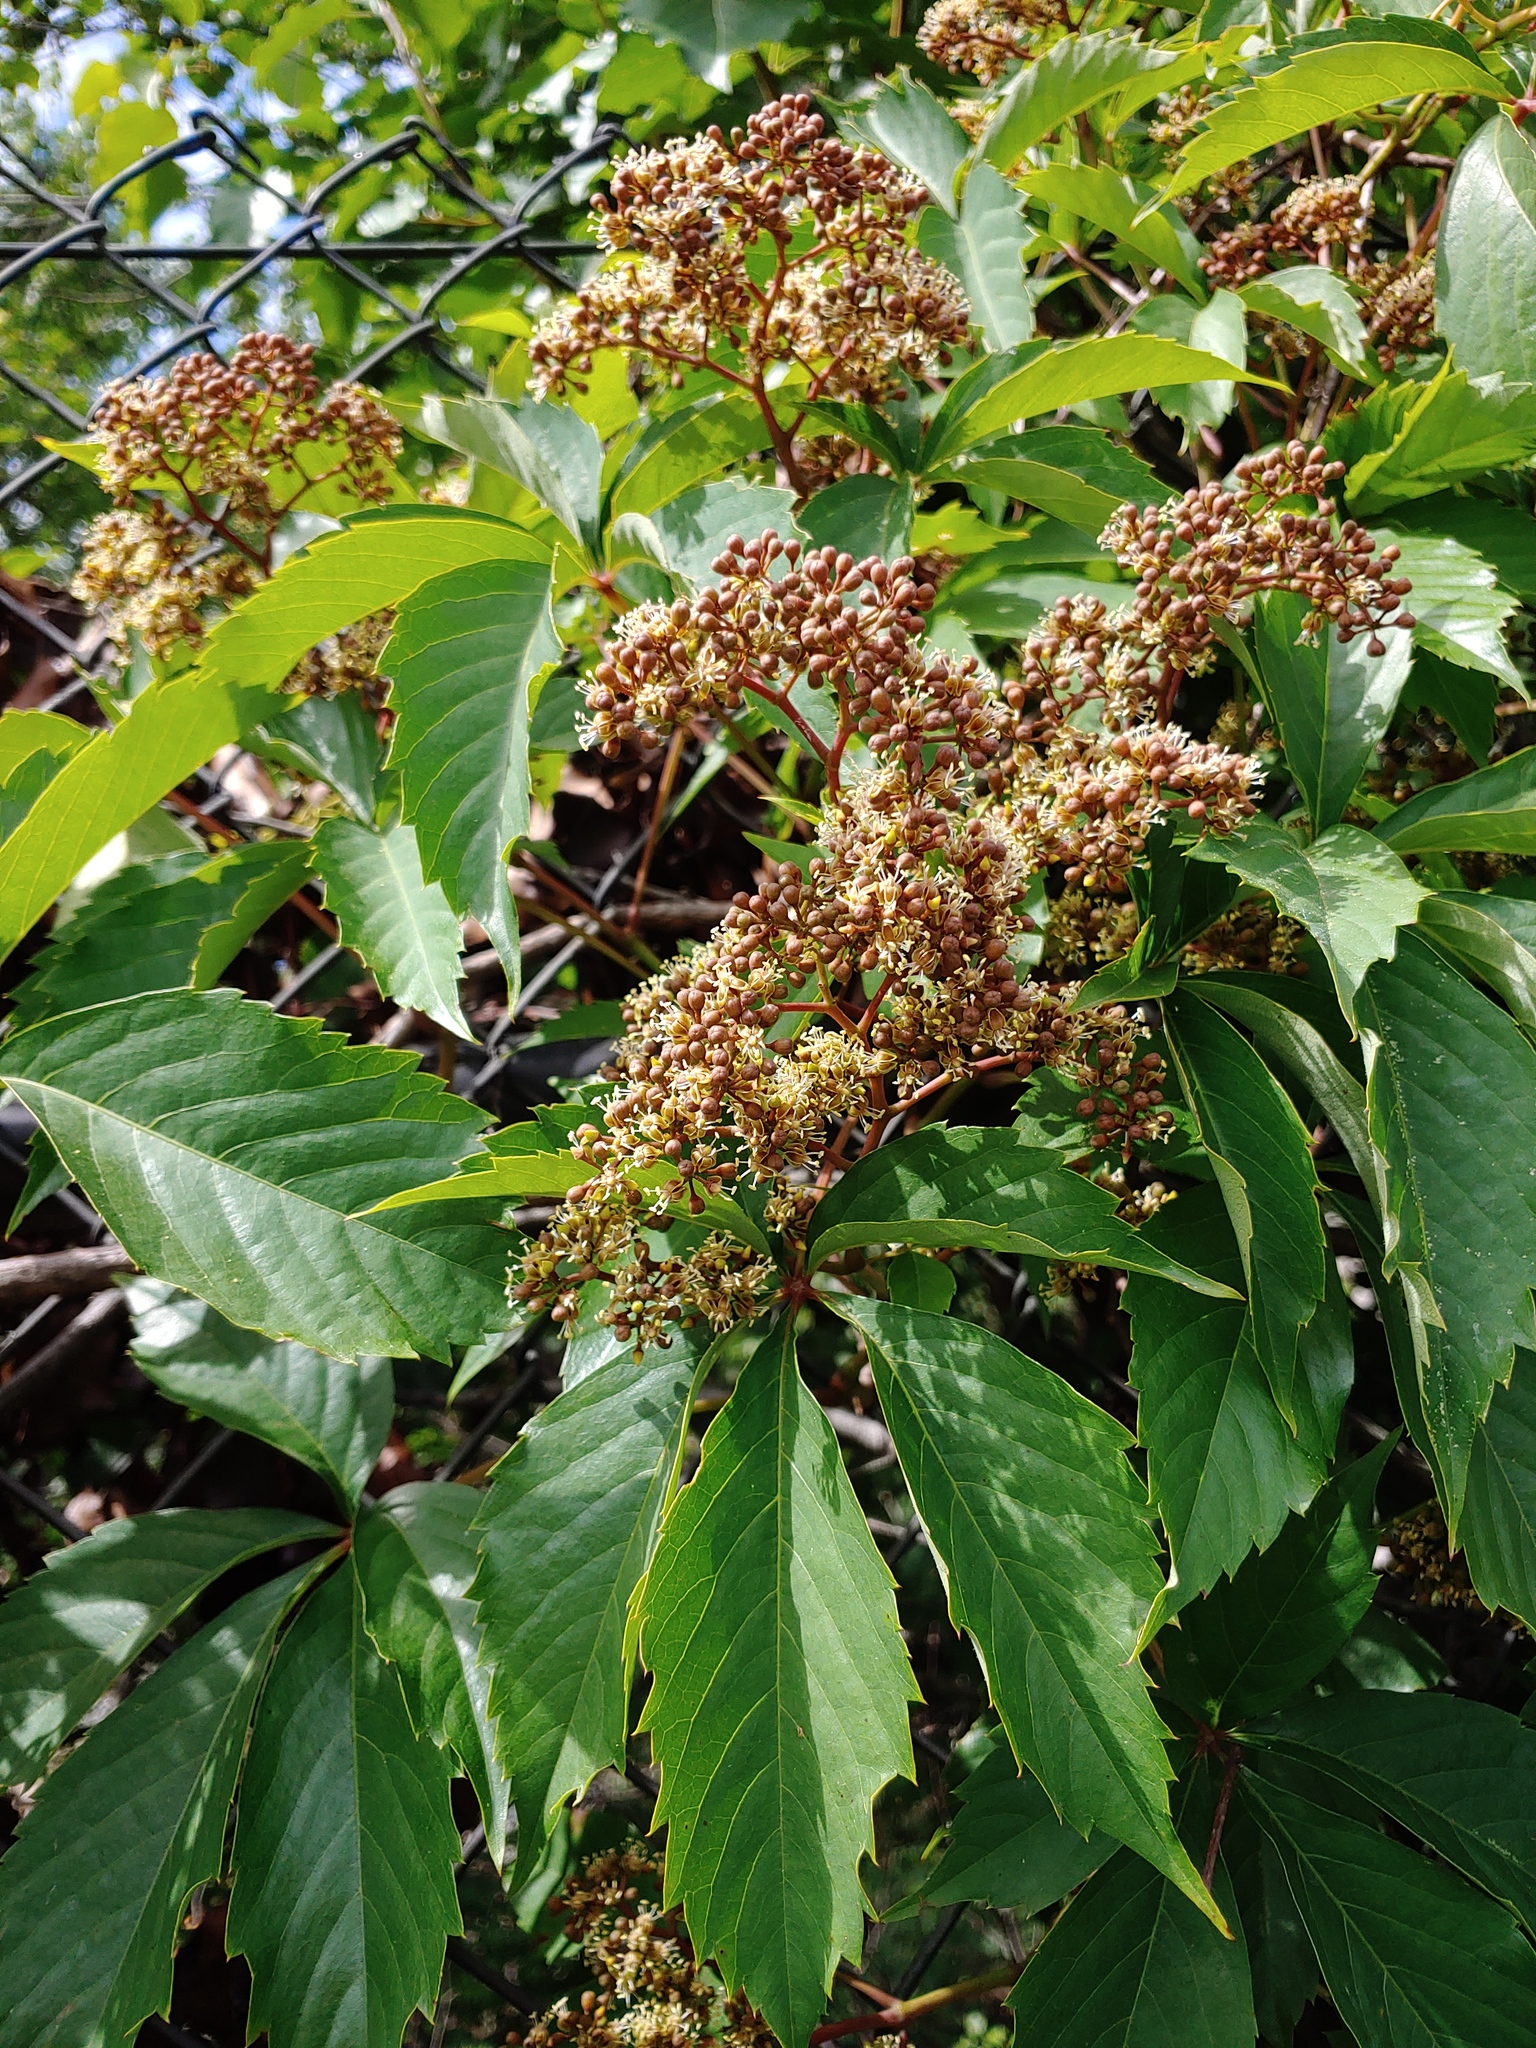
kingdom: Plantae
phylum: Tracheophyta
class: Magnoliopsida
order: Vitales
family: Vitaceae
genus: Parthenocissus
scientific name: Parthenocissus quinquefolia
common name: Virginia-creeper
